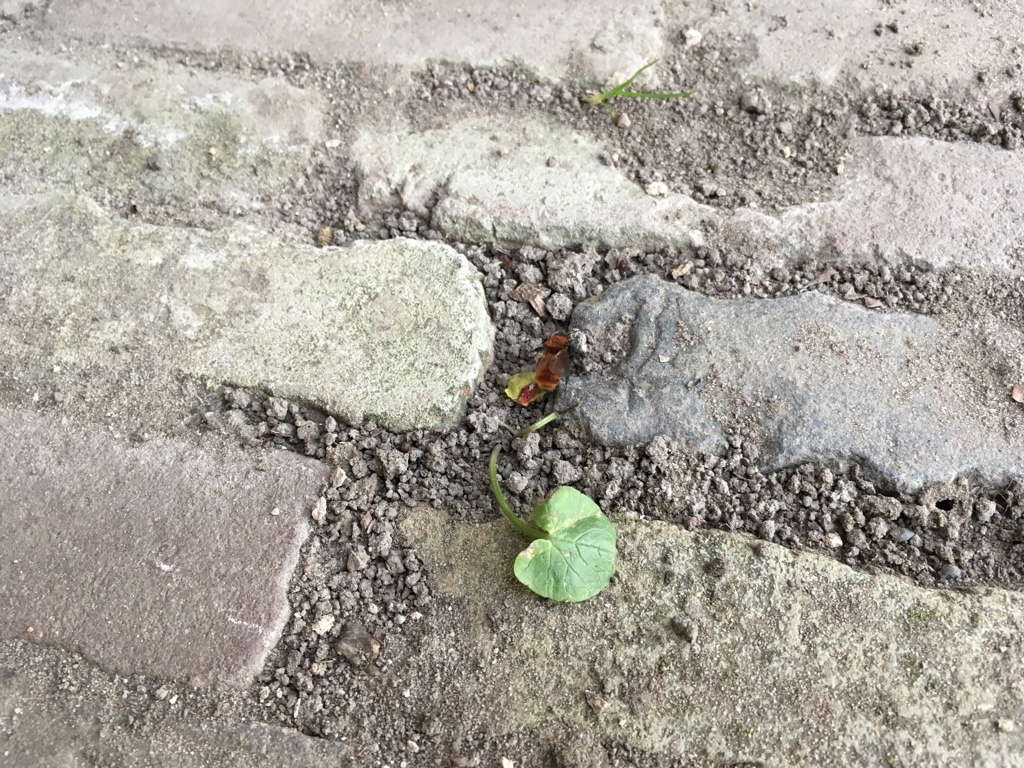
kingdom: Animalia
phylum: Arthropoda
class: Insecta
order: Hymenoptera
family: Andrenidae
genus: Andrena
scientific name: Andrena fulva
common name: Tawny mining bee
